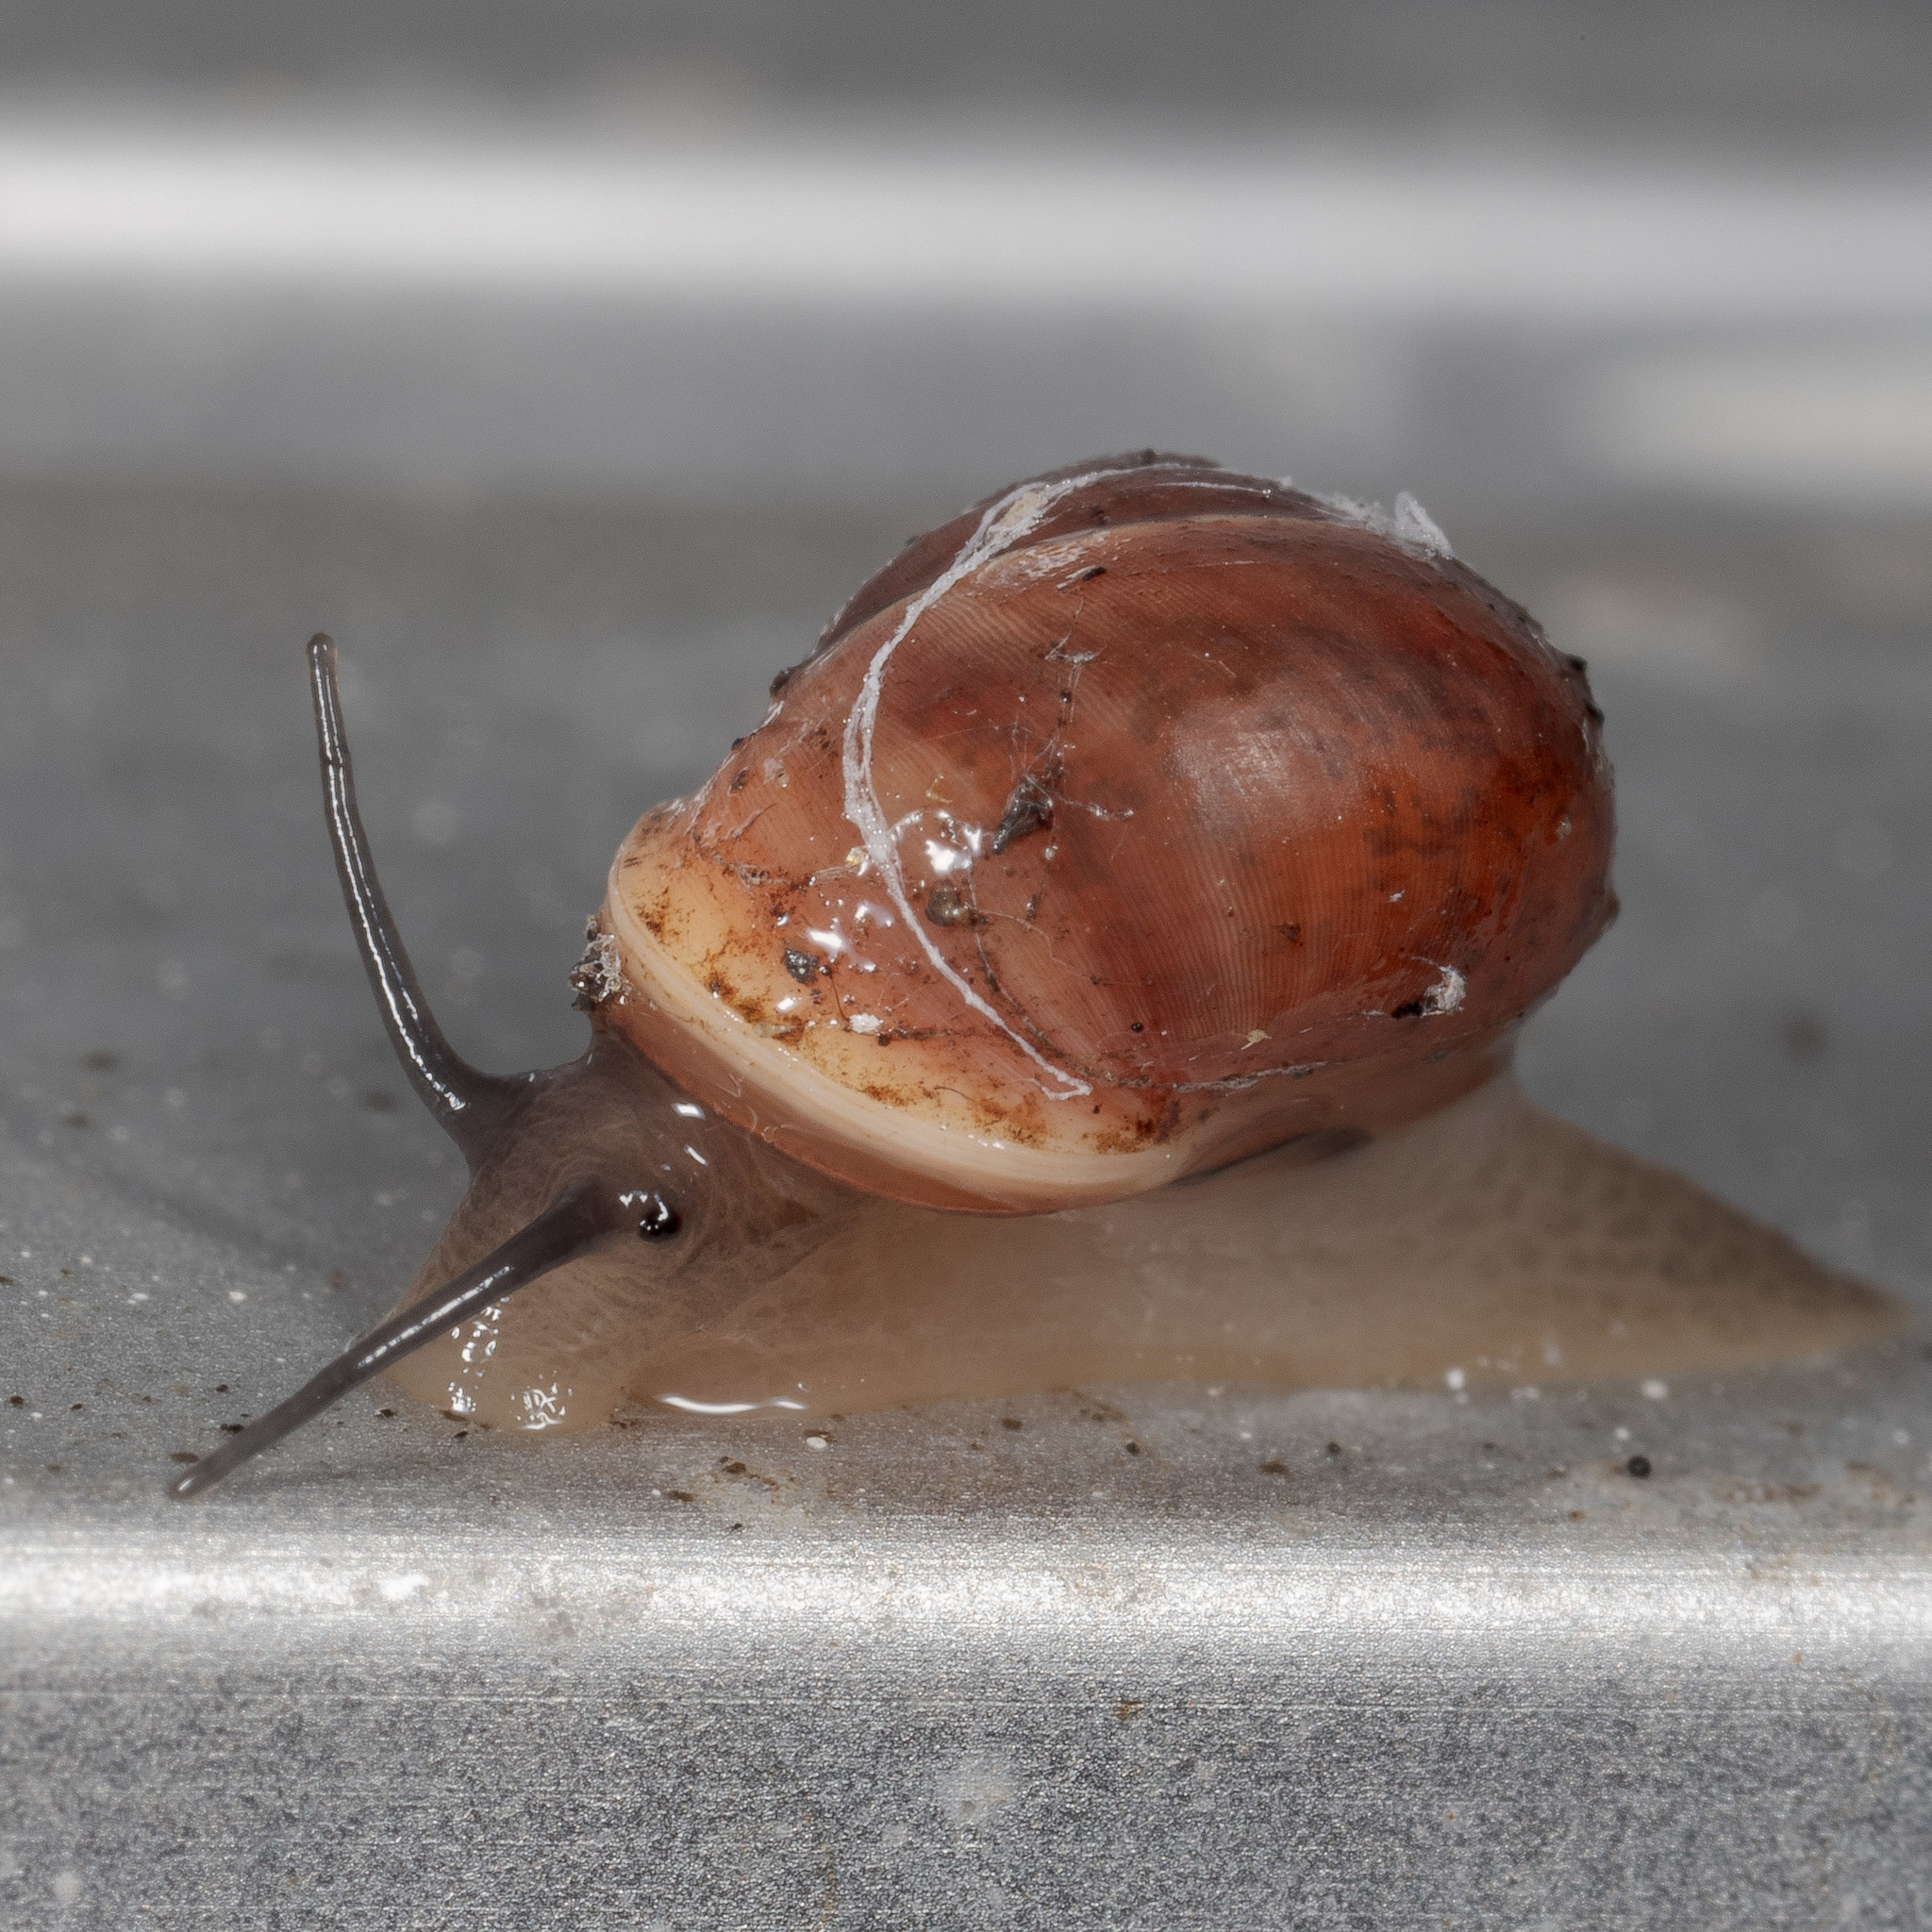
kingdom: Animalia
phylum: Mollusca
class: Gastropoda
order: Cycloneritida
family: Helicinidae
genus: Helicina
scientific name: Helicina orbiculata
